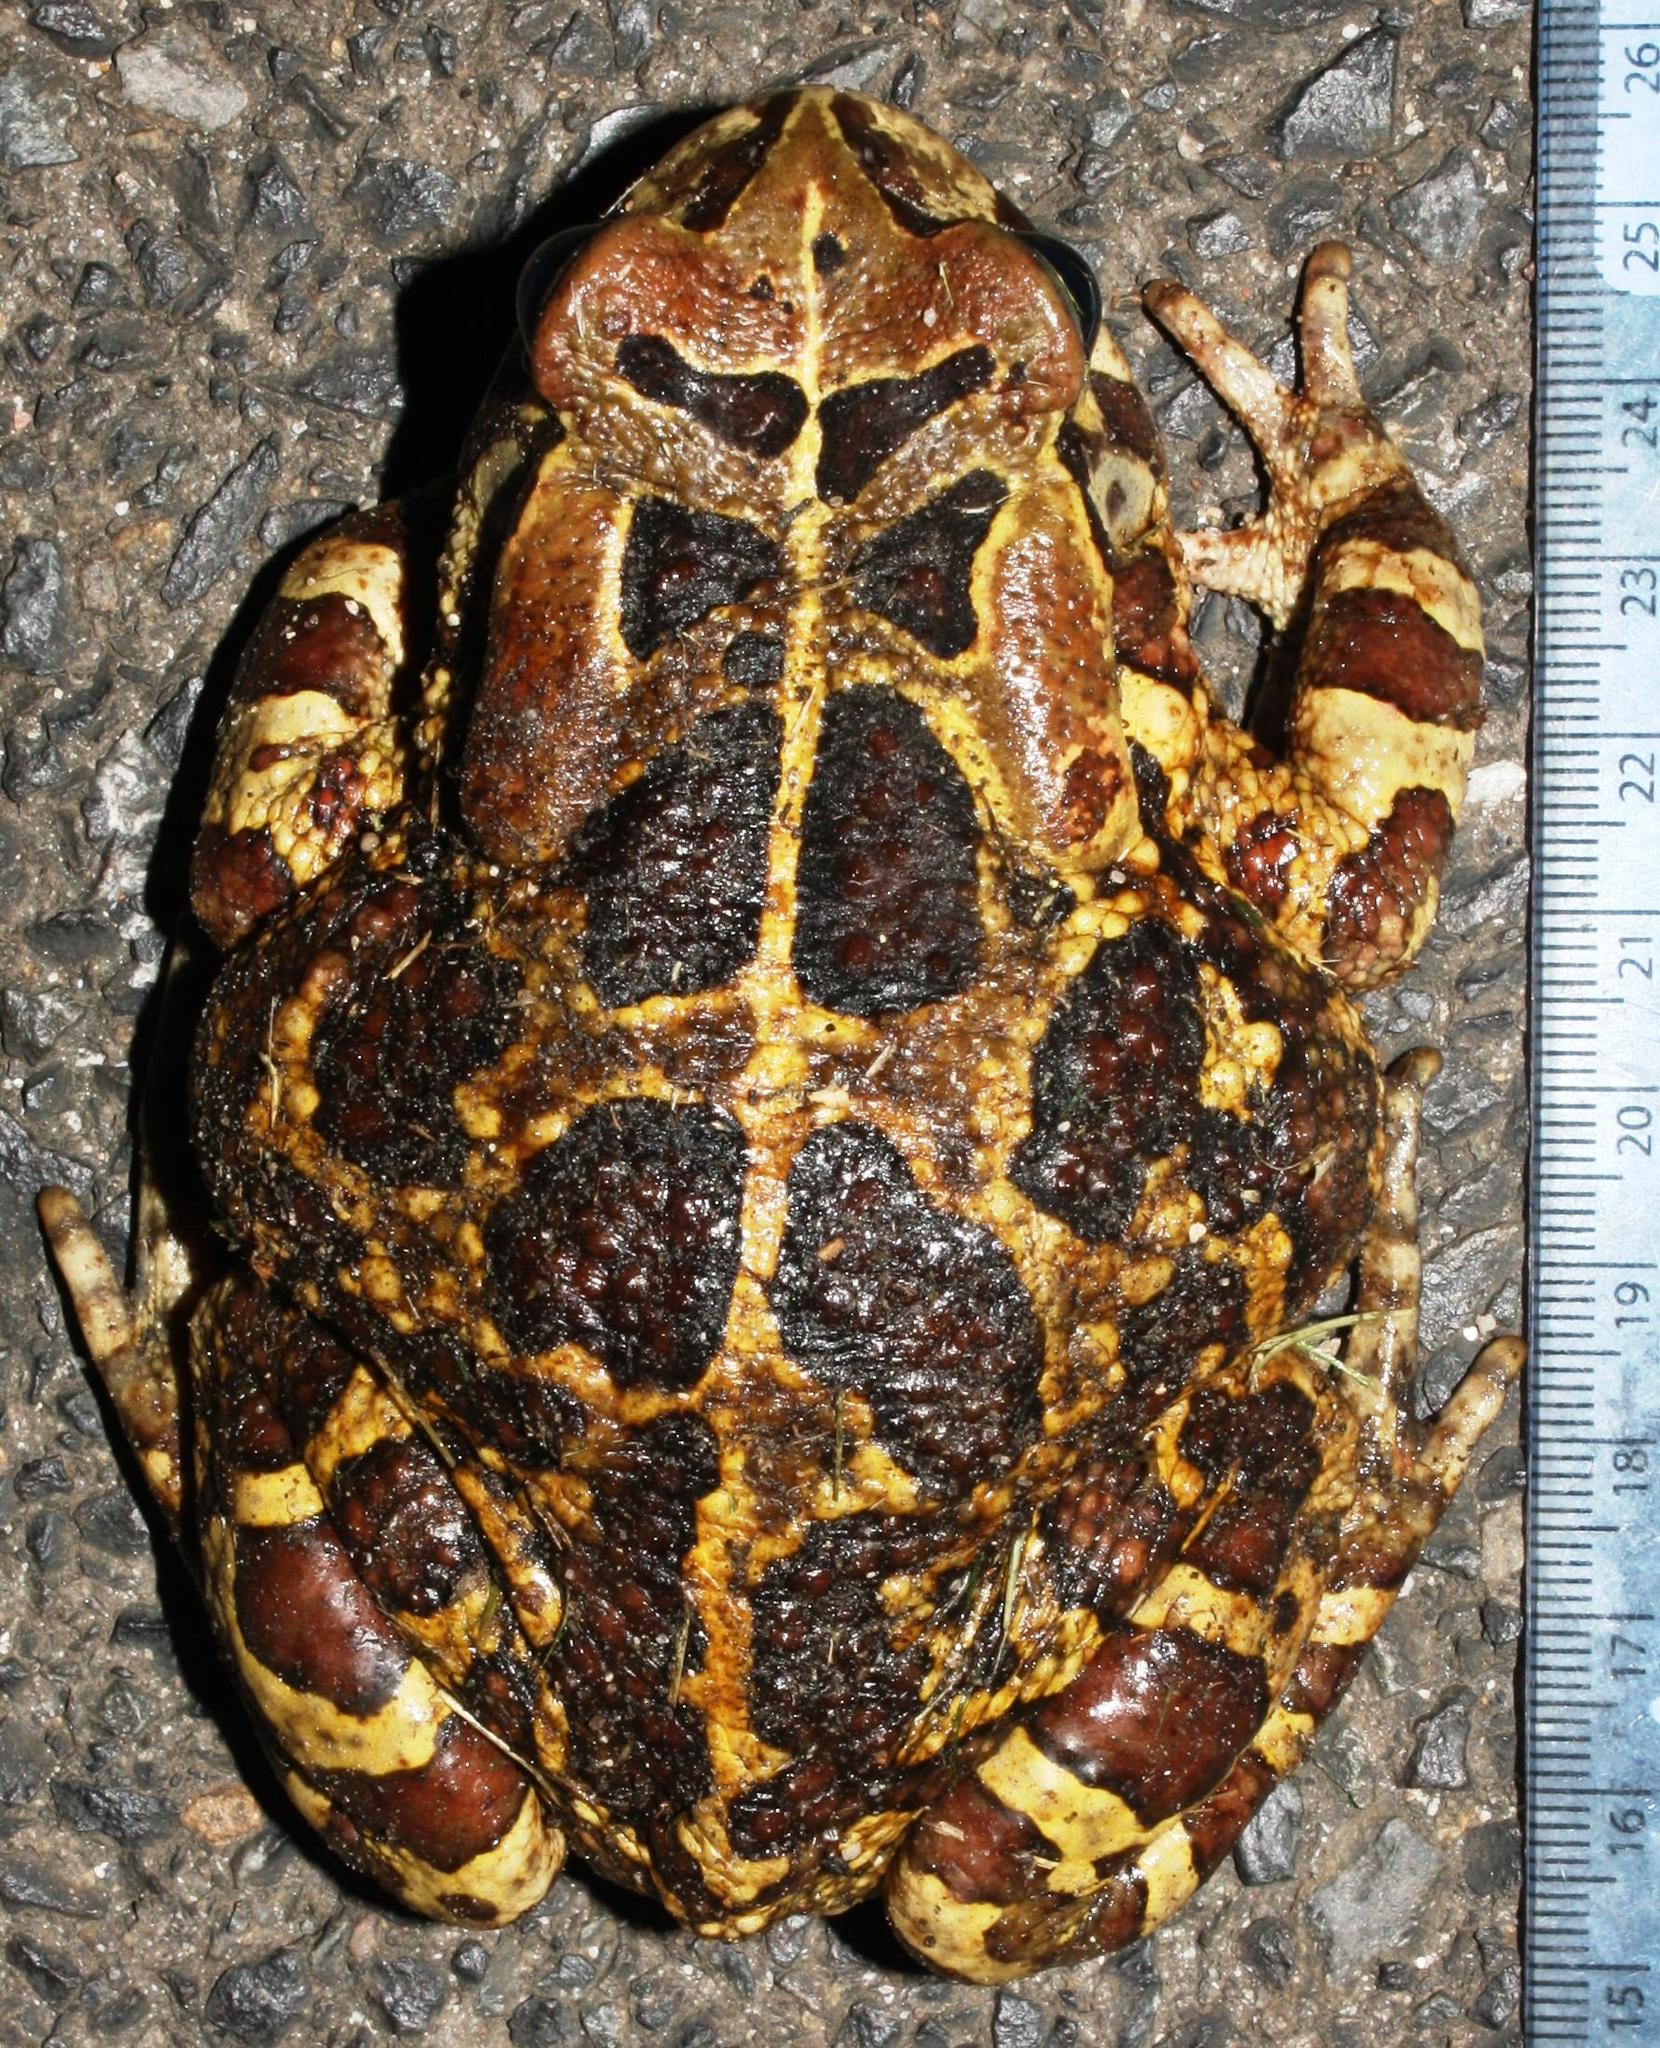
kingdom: Animalia
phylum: Chordata
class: Amphibia
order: Anura
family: Bufonidae
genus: Sclerophrys
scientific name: Sclerophrys pantherina
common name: Panther toad
